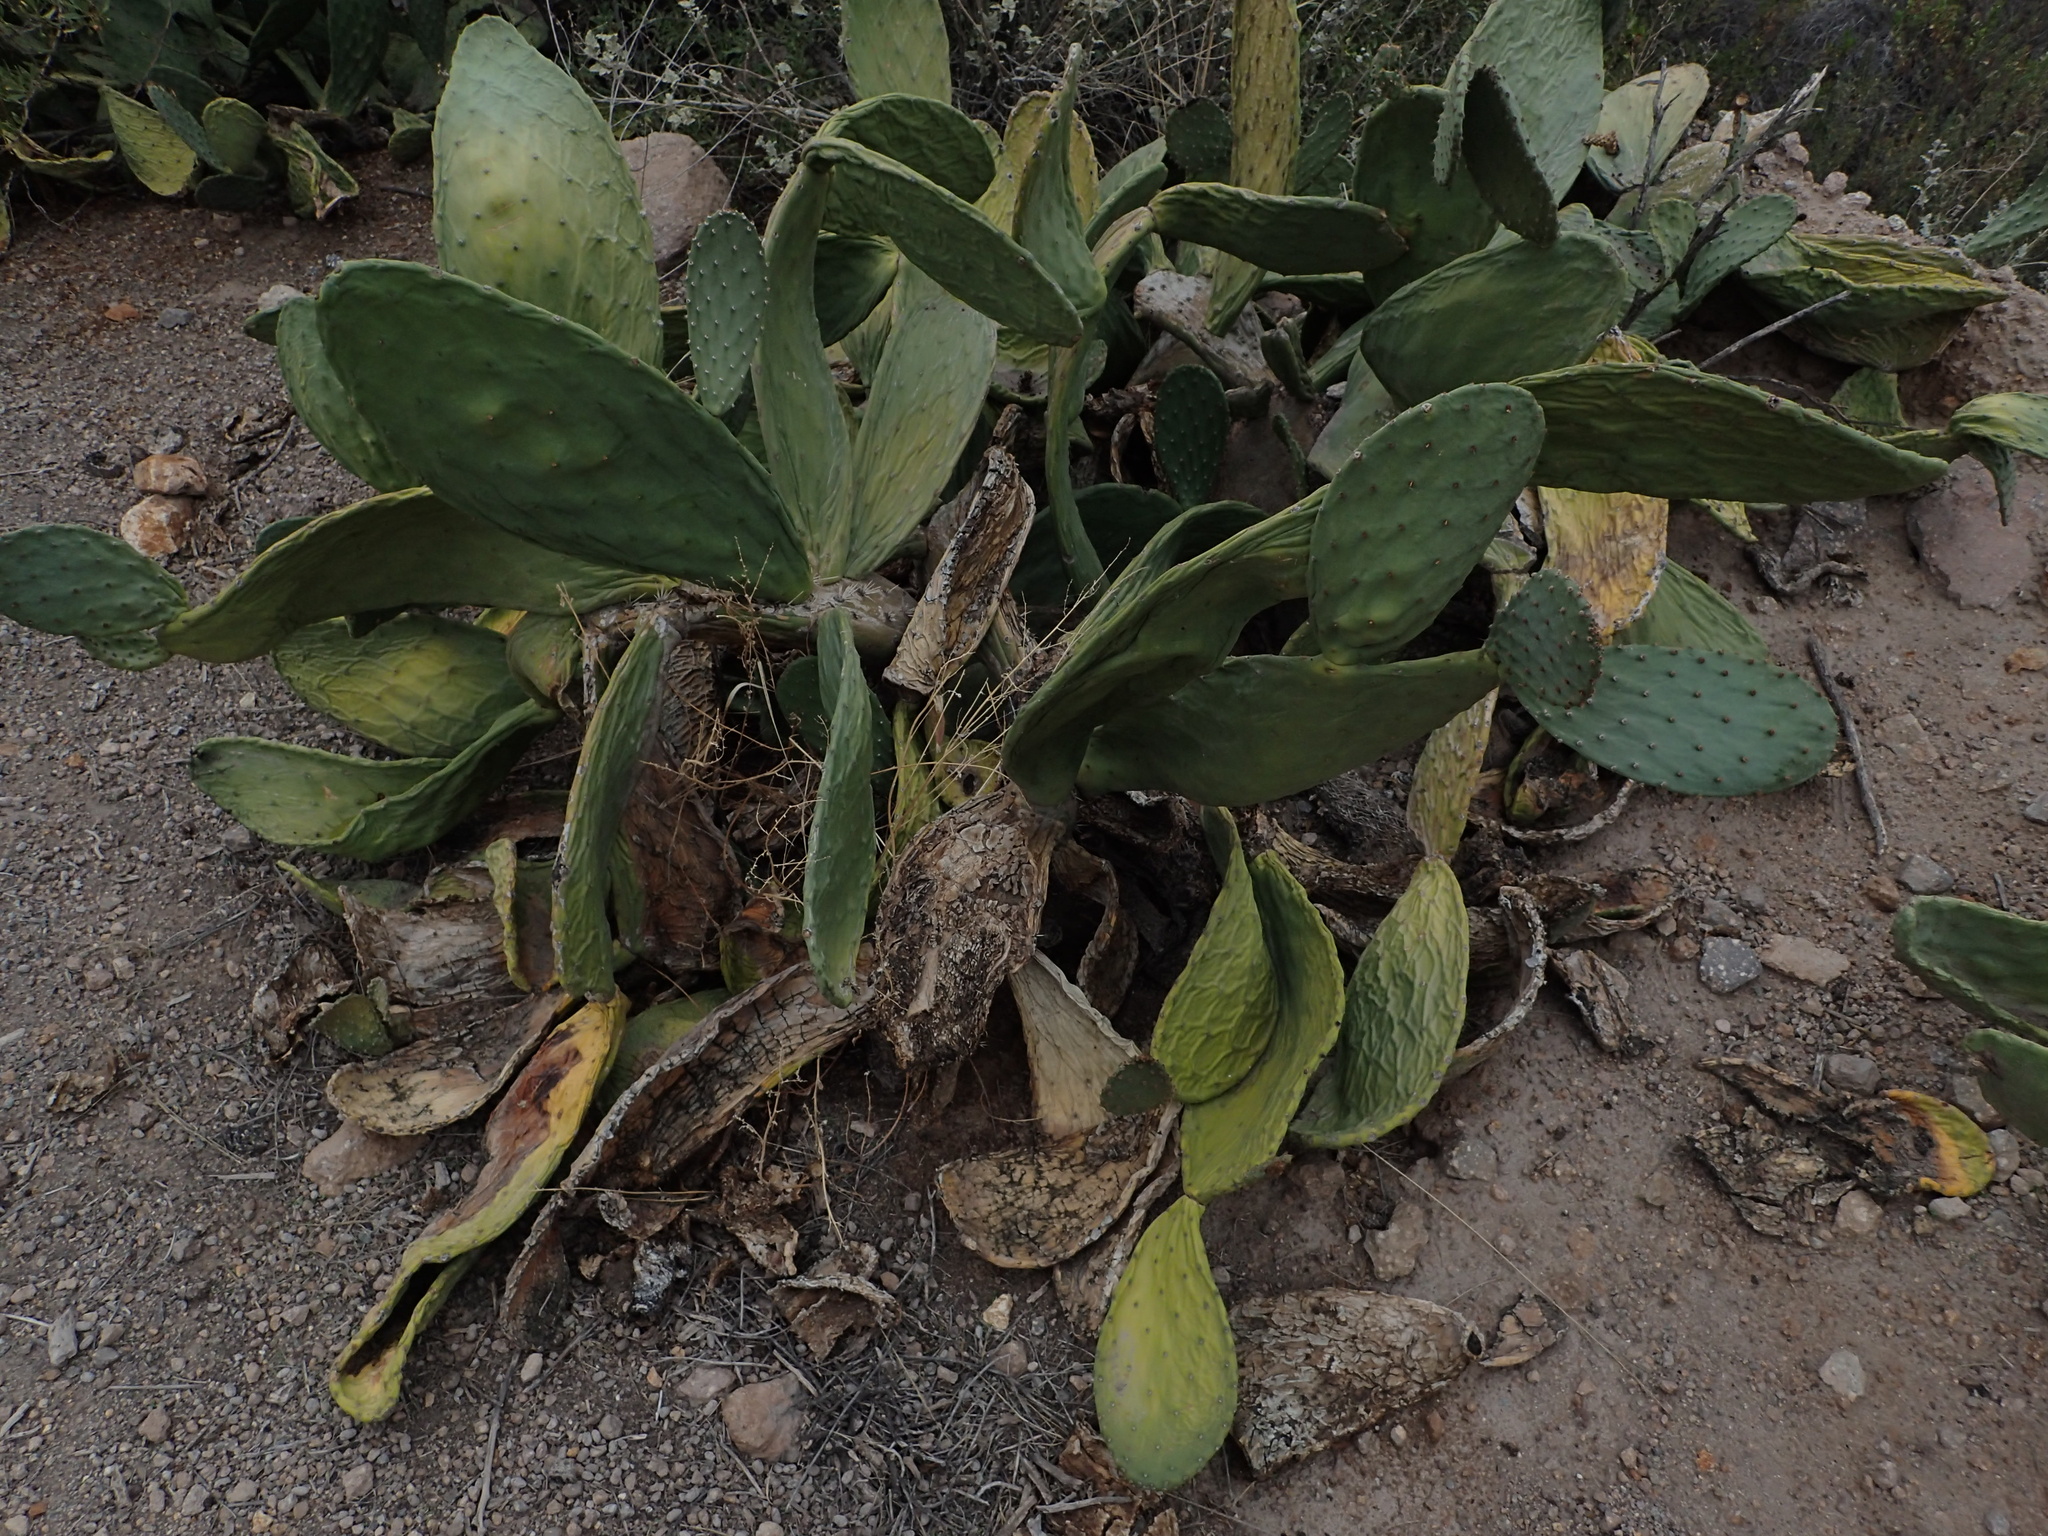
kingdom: Plantae
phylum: Tracheophyta
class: Magnoliopsida
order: Caryophyllales
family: Cactaceae
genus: Opuntia
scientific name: Opuntia ficus-indica
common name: Barbary fig
